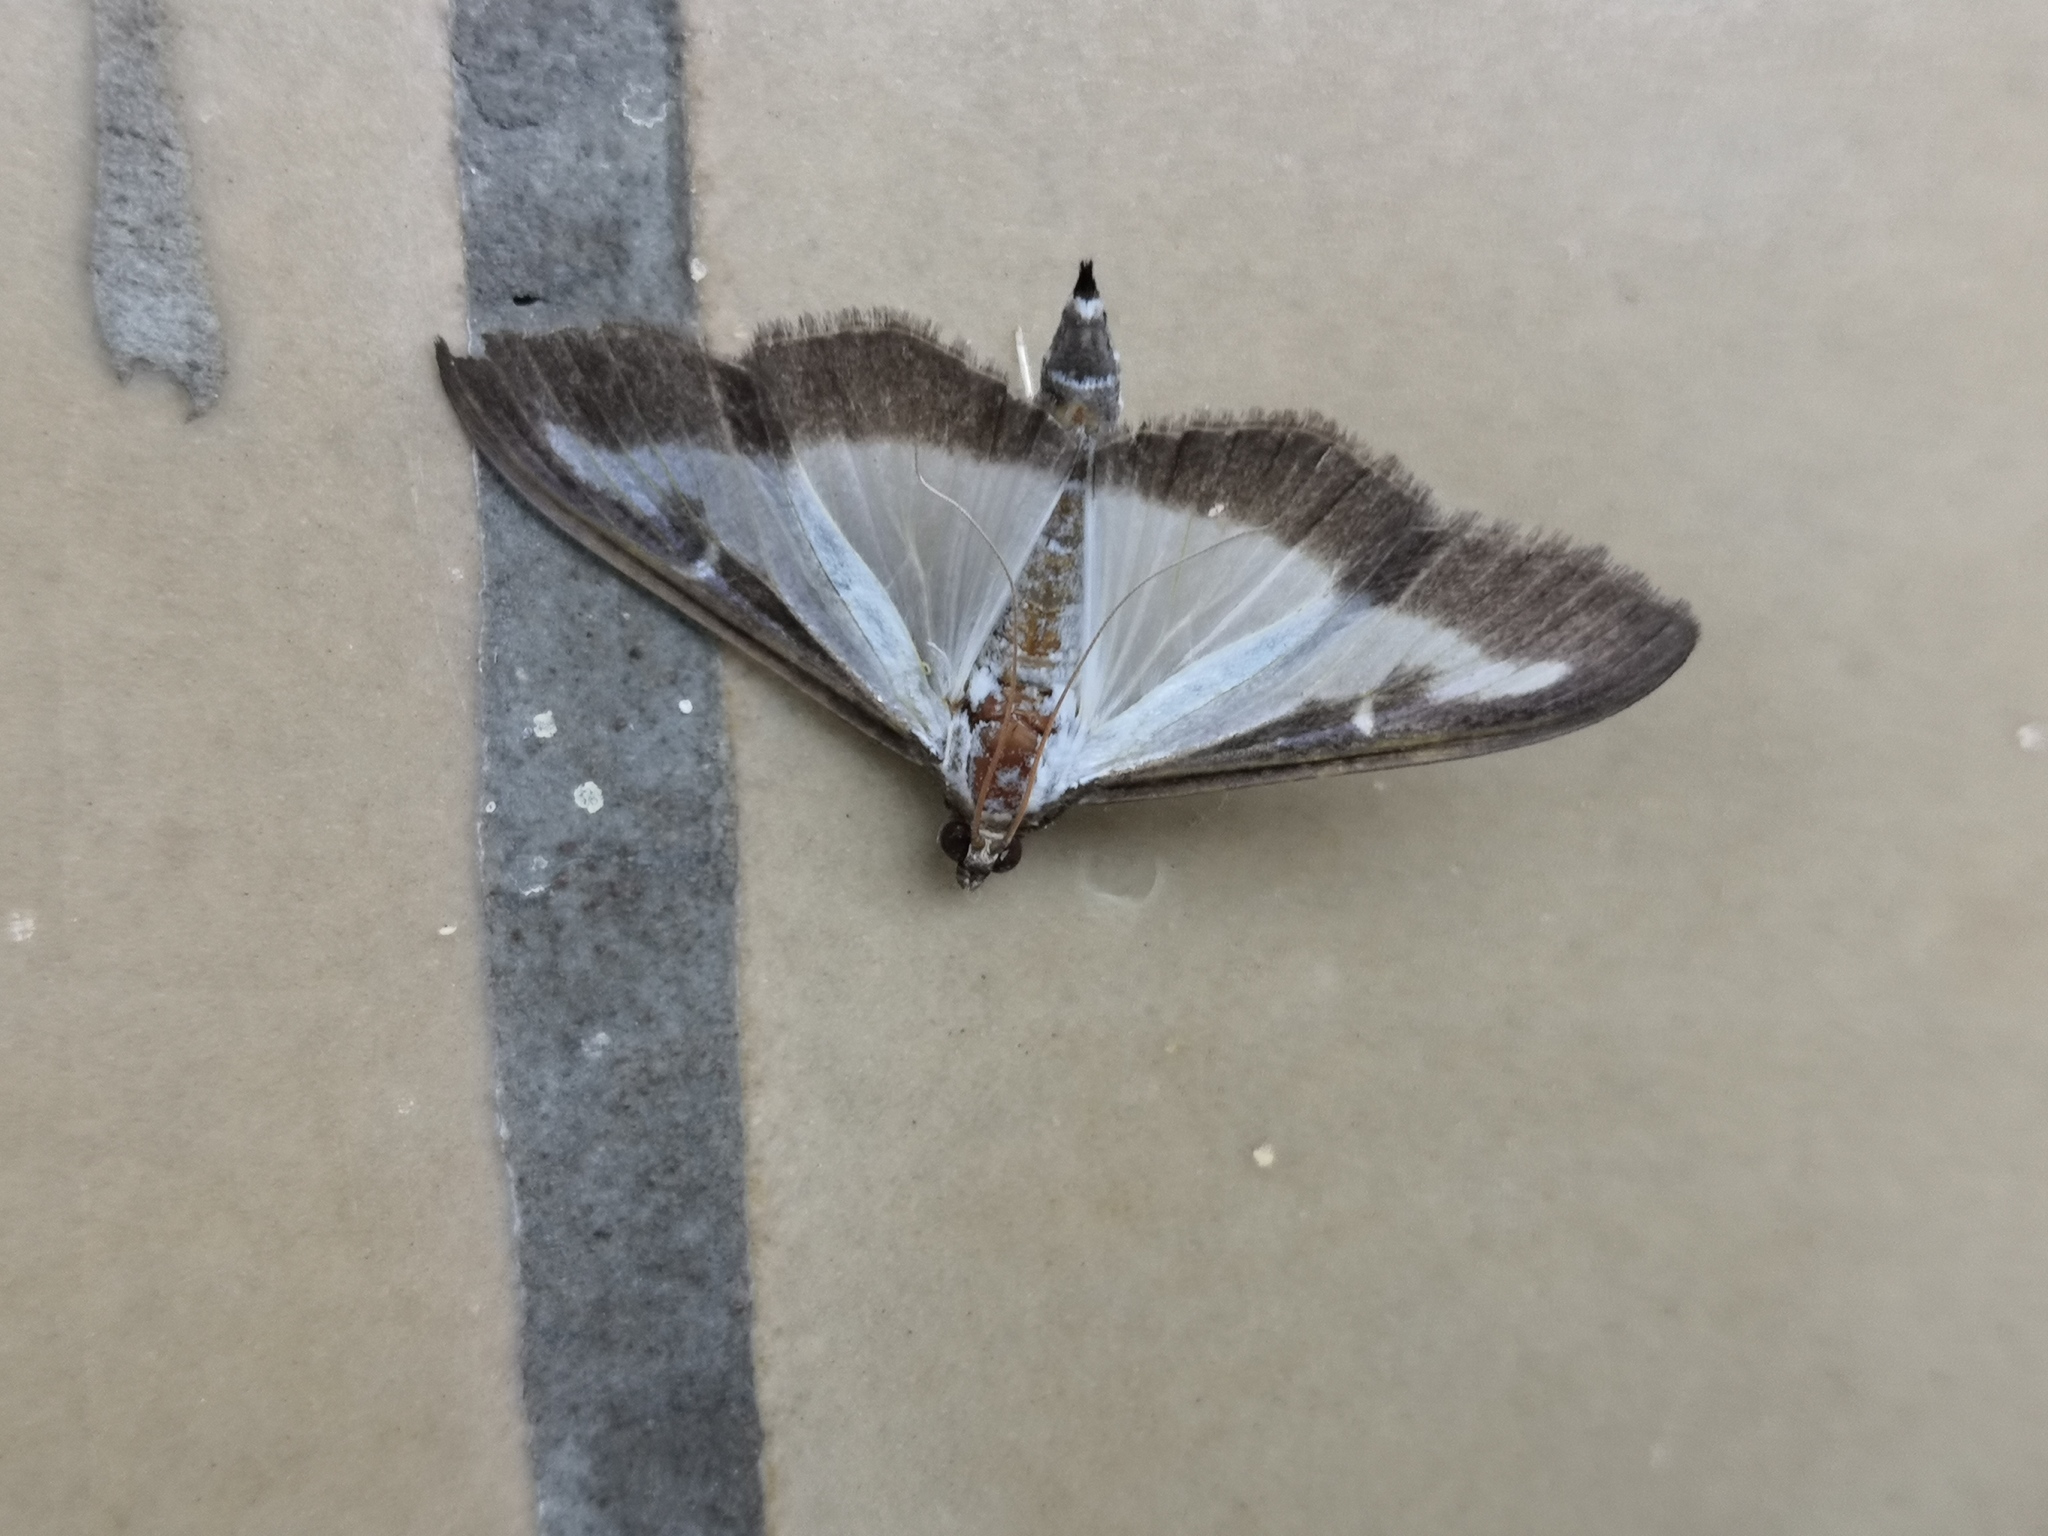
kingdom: Animalia
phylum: Arthropoda
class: Insecta
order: Lepidoptera
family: Crambidae
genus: Cydalima
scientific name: Cydalima perspectalis
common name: Box tree moth
